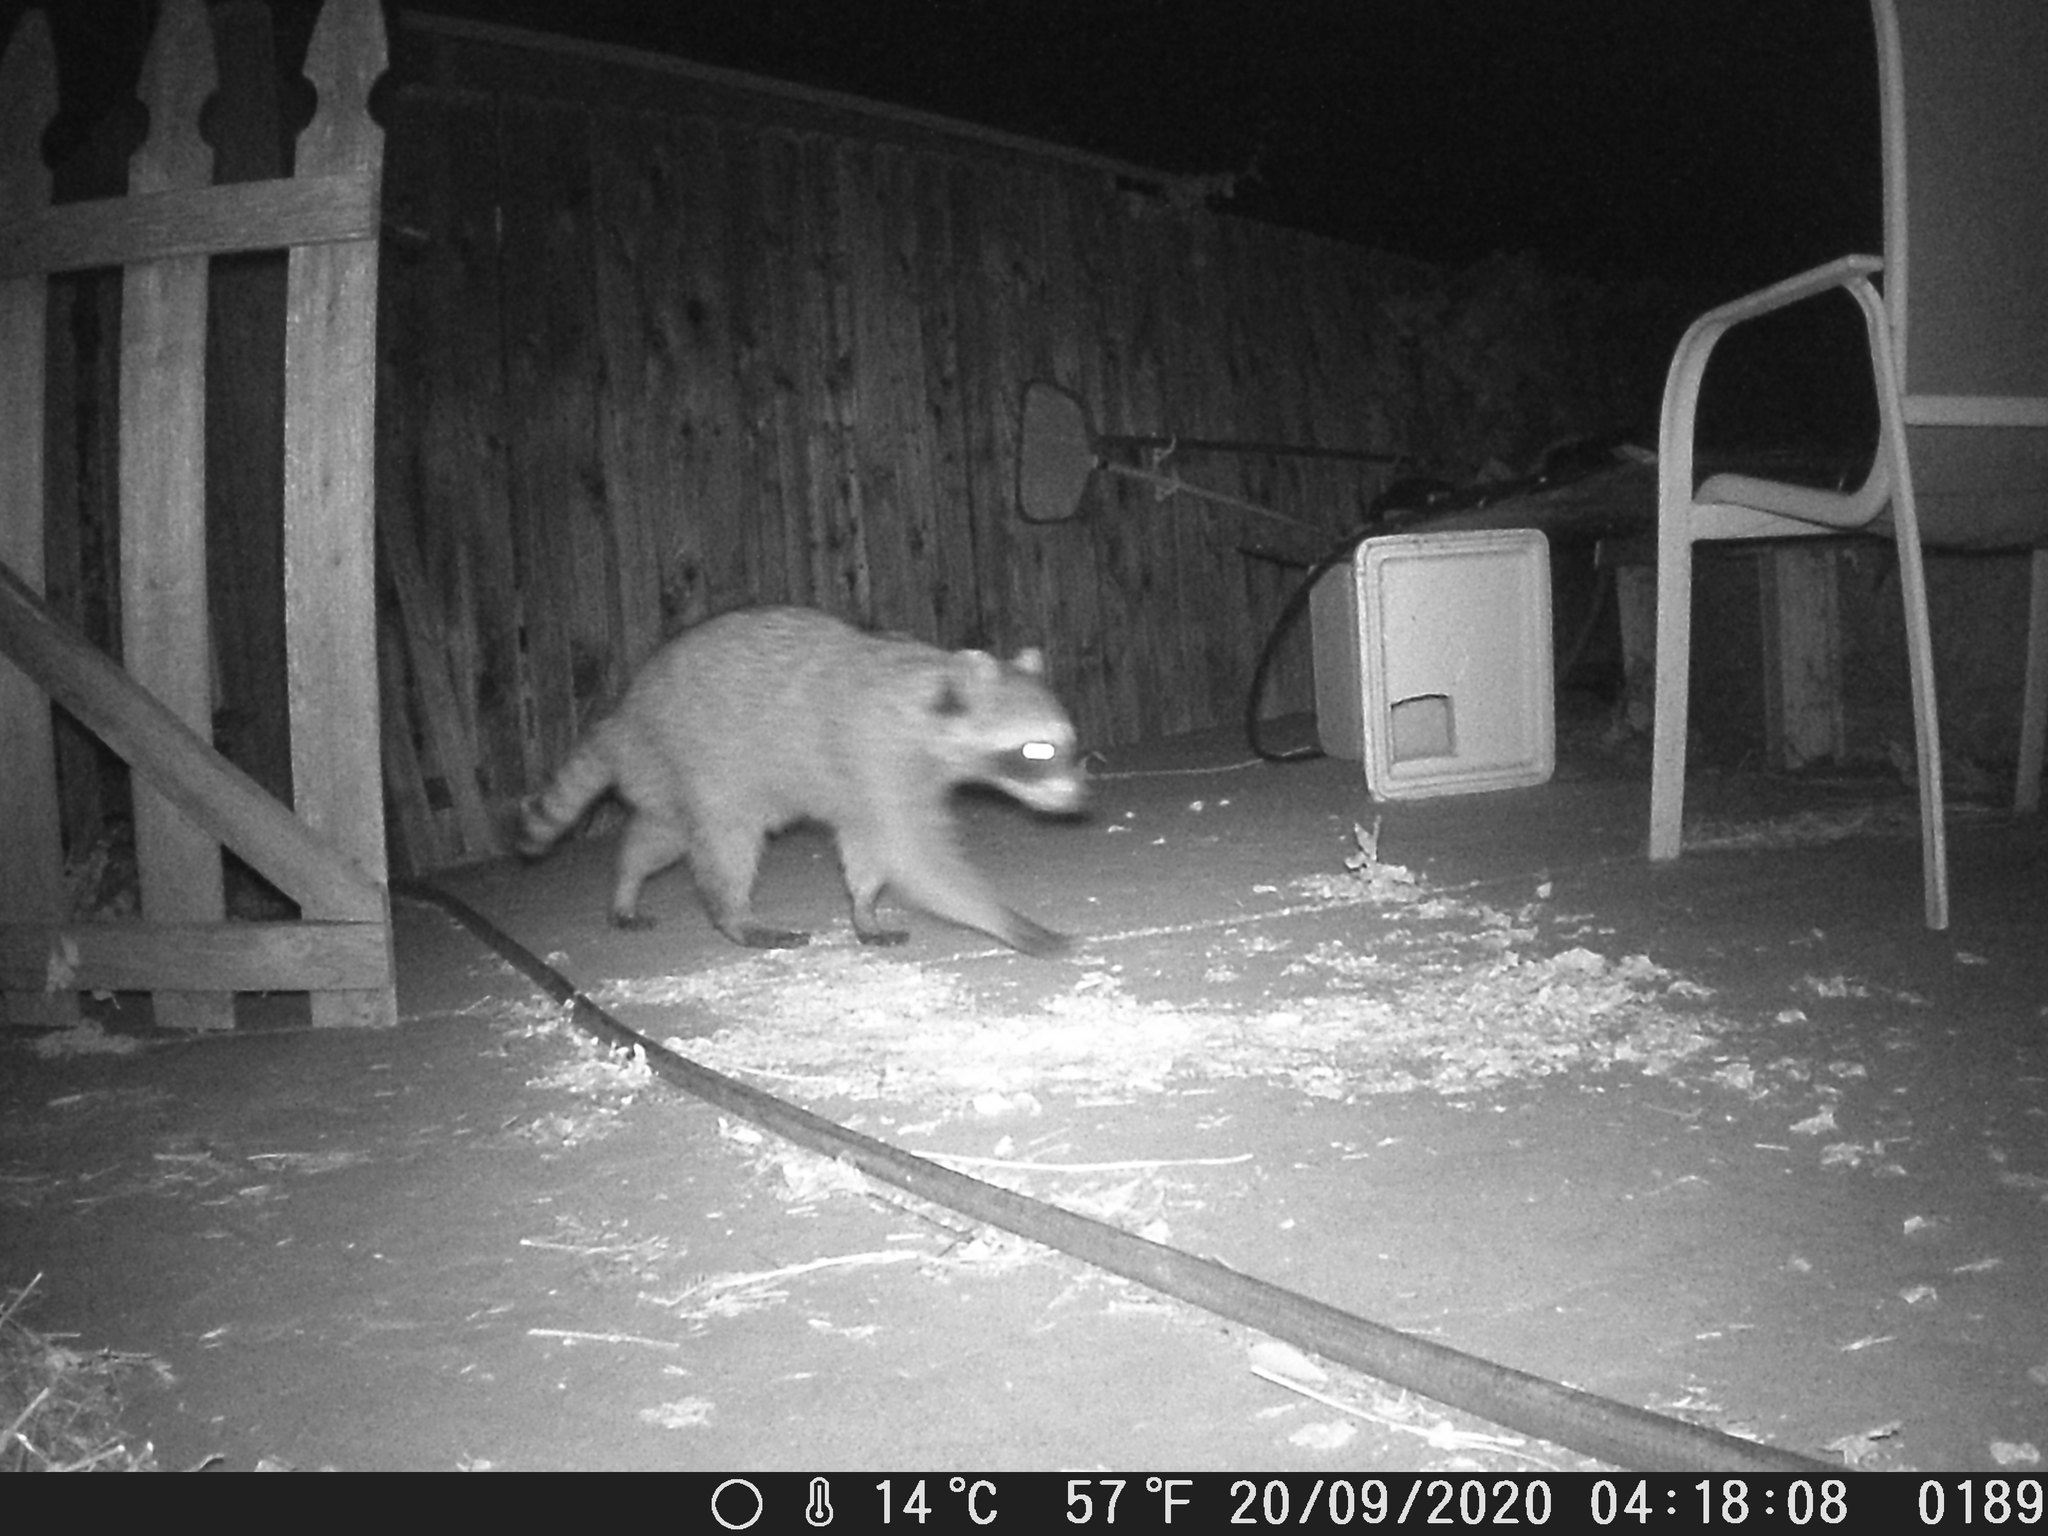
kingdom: Animalia
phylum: Chordata
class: Mammalia
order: Carnivora
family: Procyonidae
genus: Procyon
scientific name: Procyon lotor
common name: Raccoon
